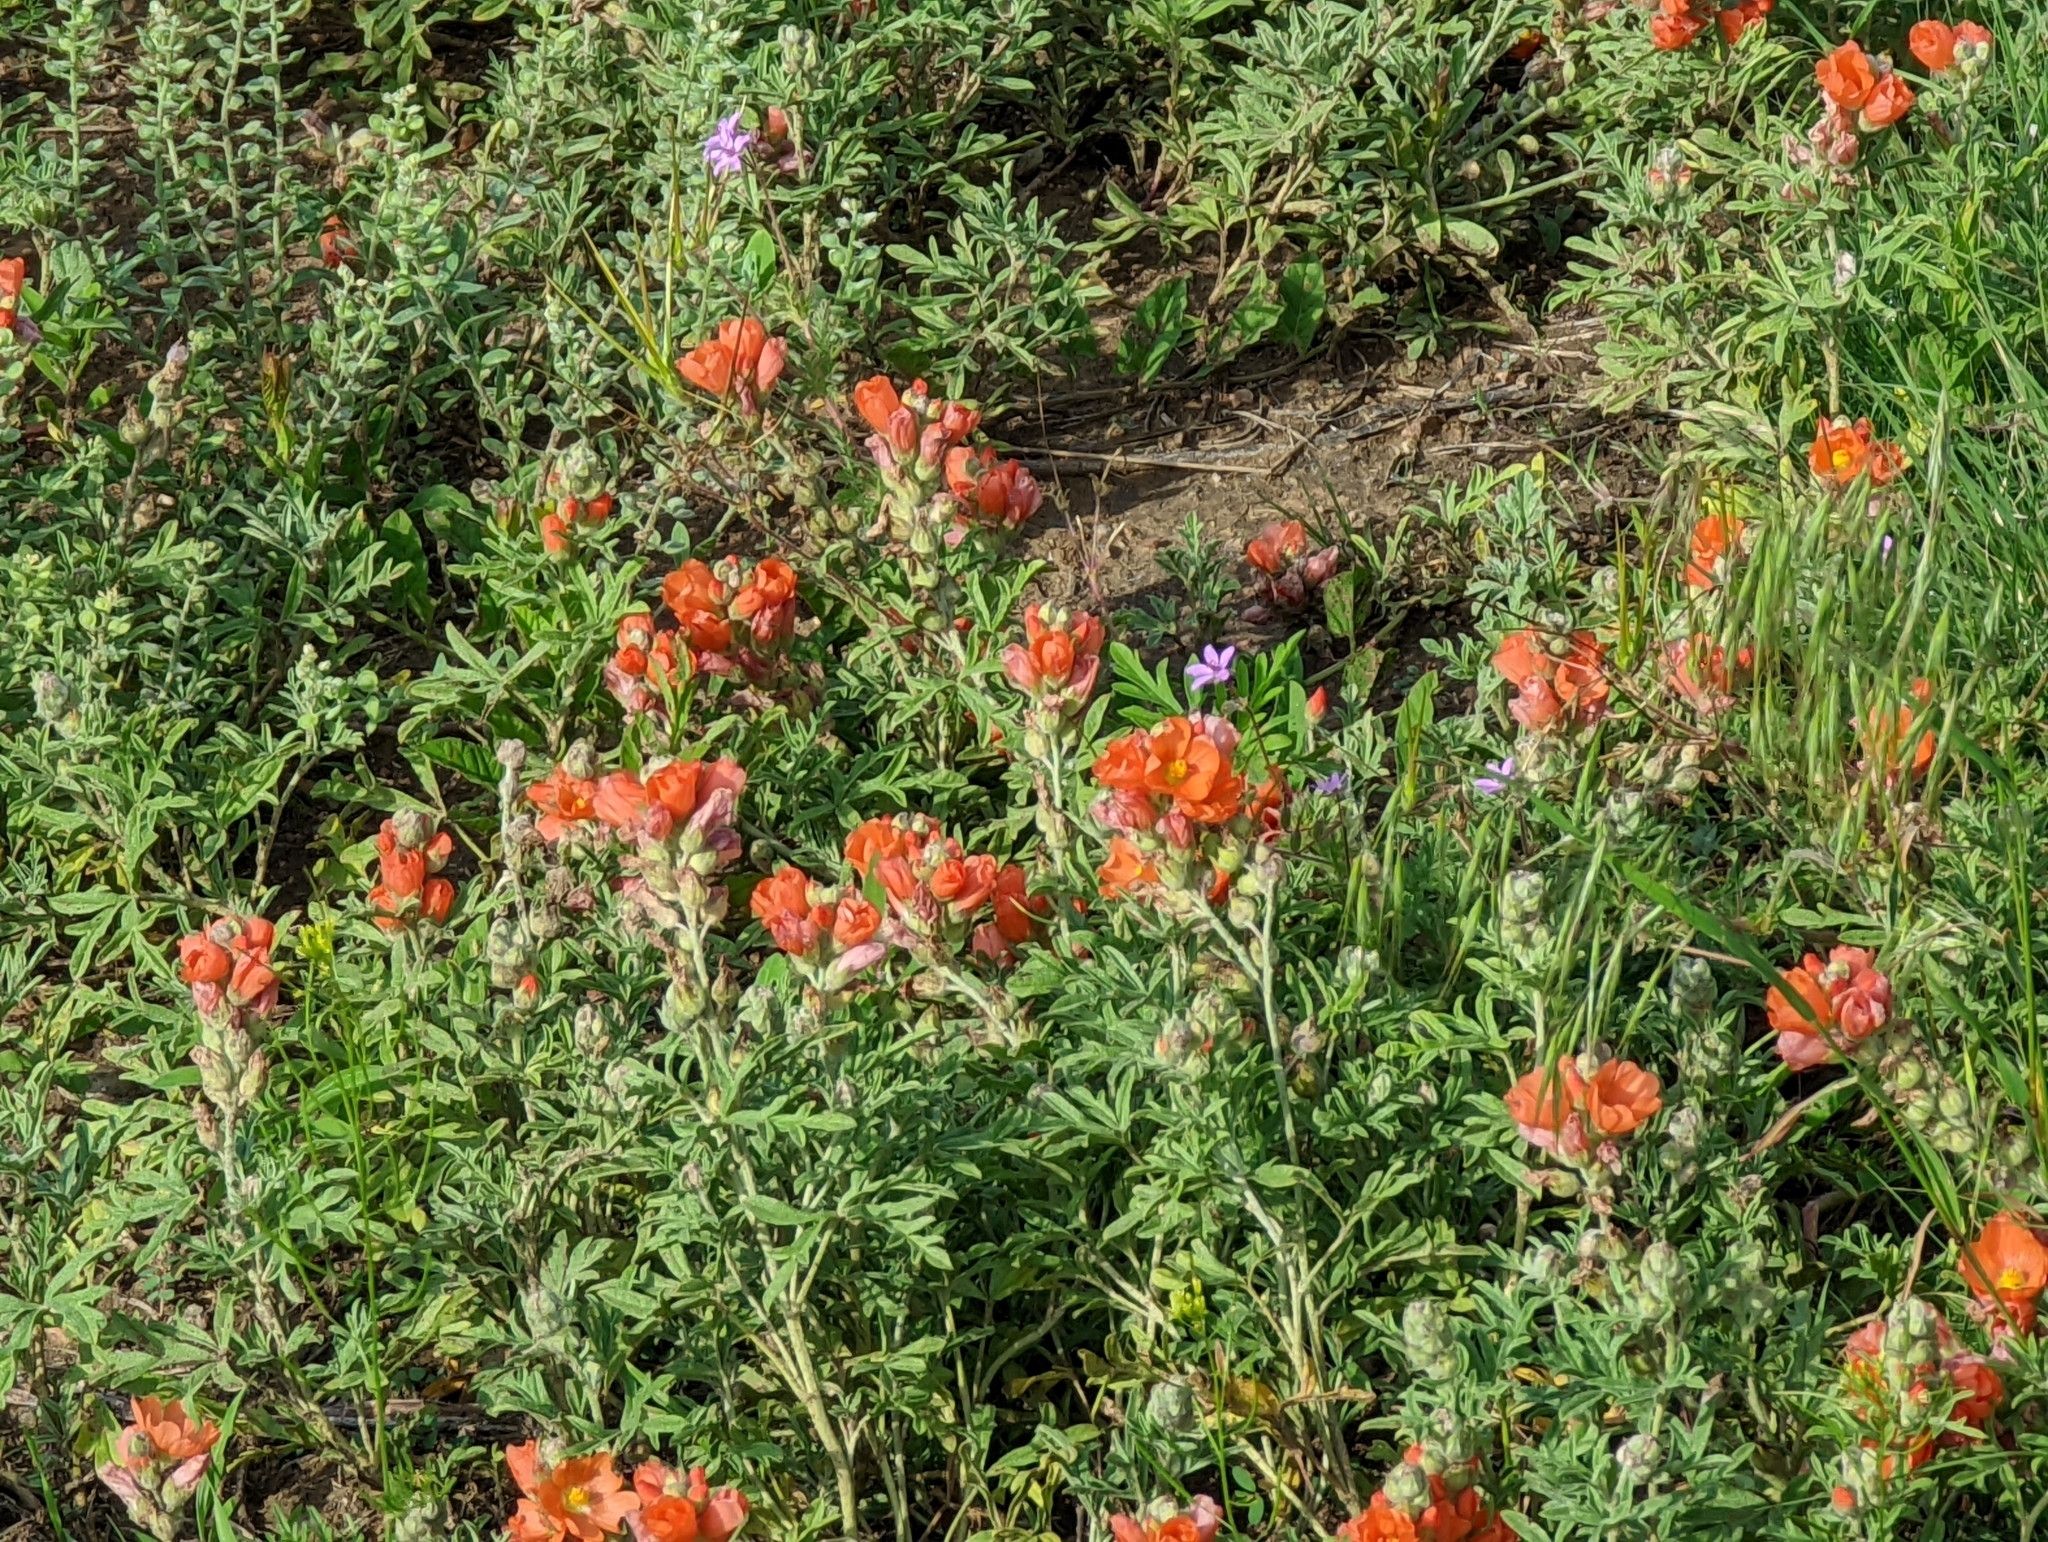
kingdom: Plantae
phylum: Tracheophyta
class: Magnoliopsida
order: Malvales
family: Malvaceae
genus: Sphaeralcea
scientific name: Sphaeralcea coccinea
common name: Moss-rose
